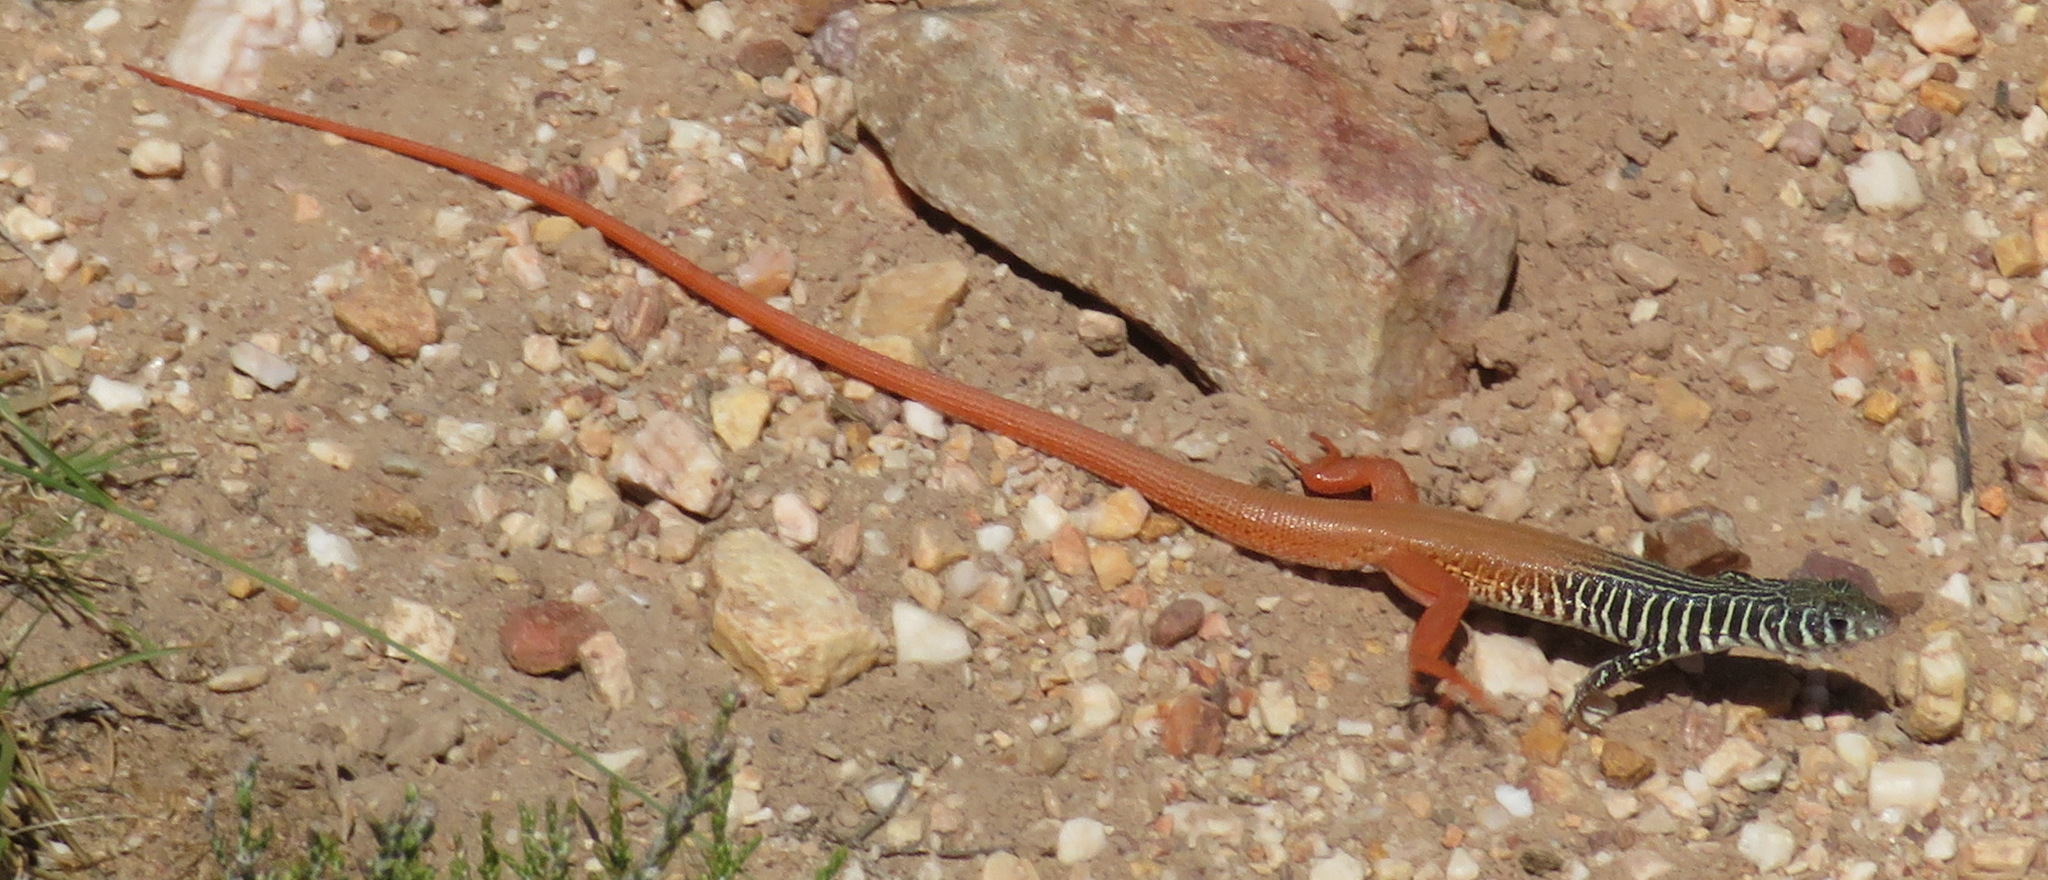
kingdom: Animalia
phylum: Chordata
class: Squamata
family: Lacertidae
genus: Nucras
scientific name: Nucras tessellata
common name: Western sandveld lizard
